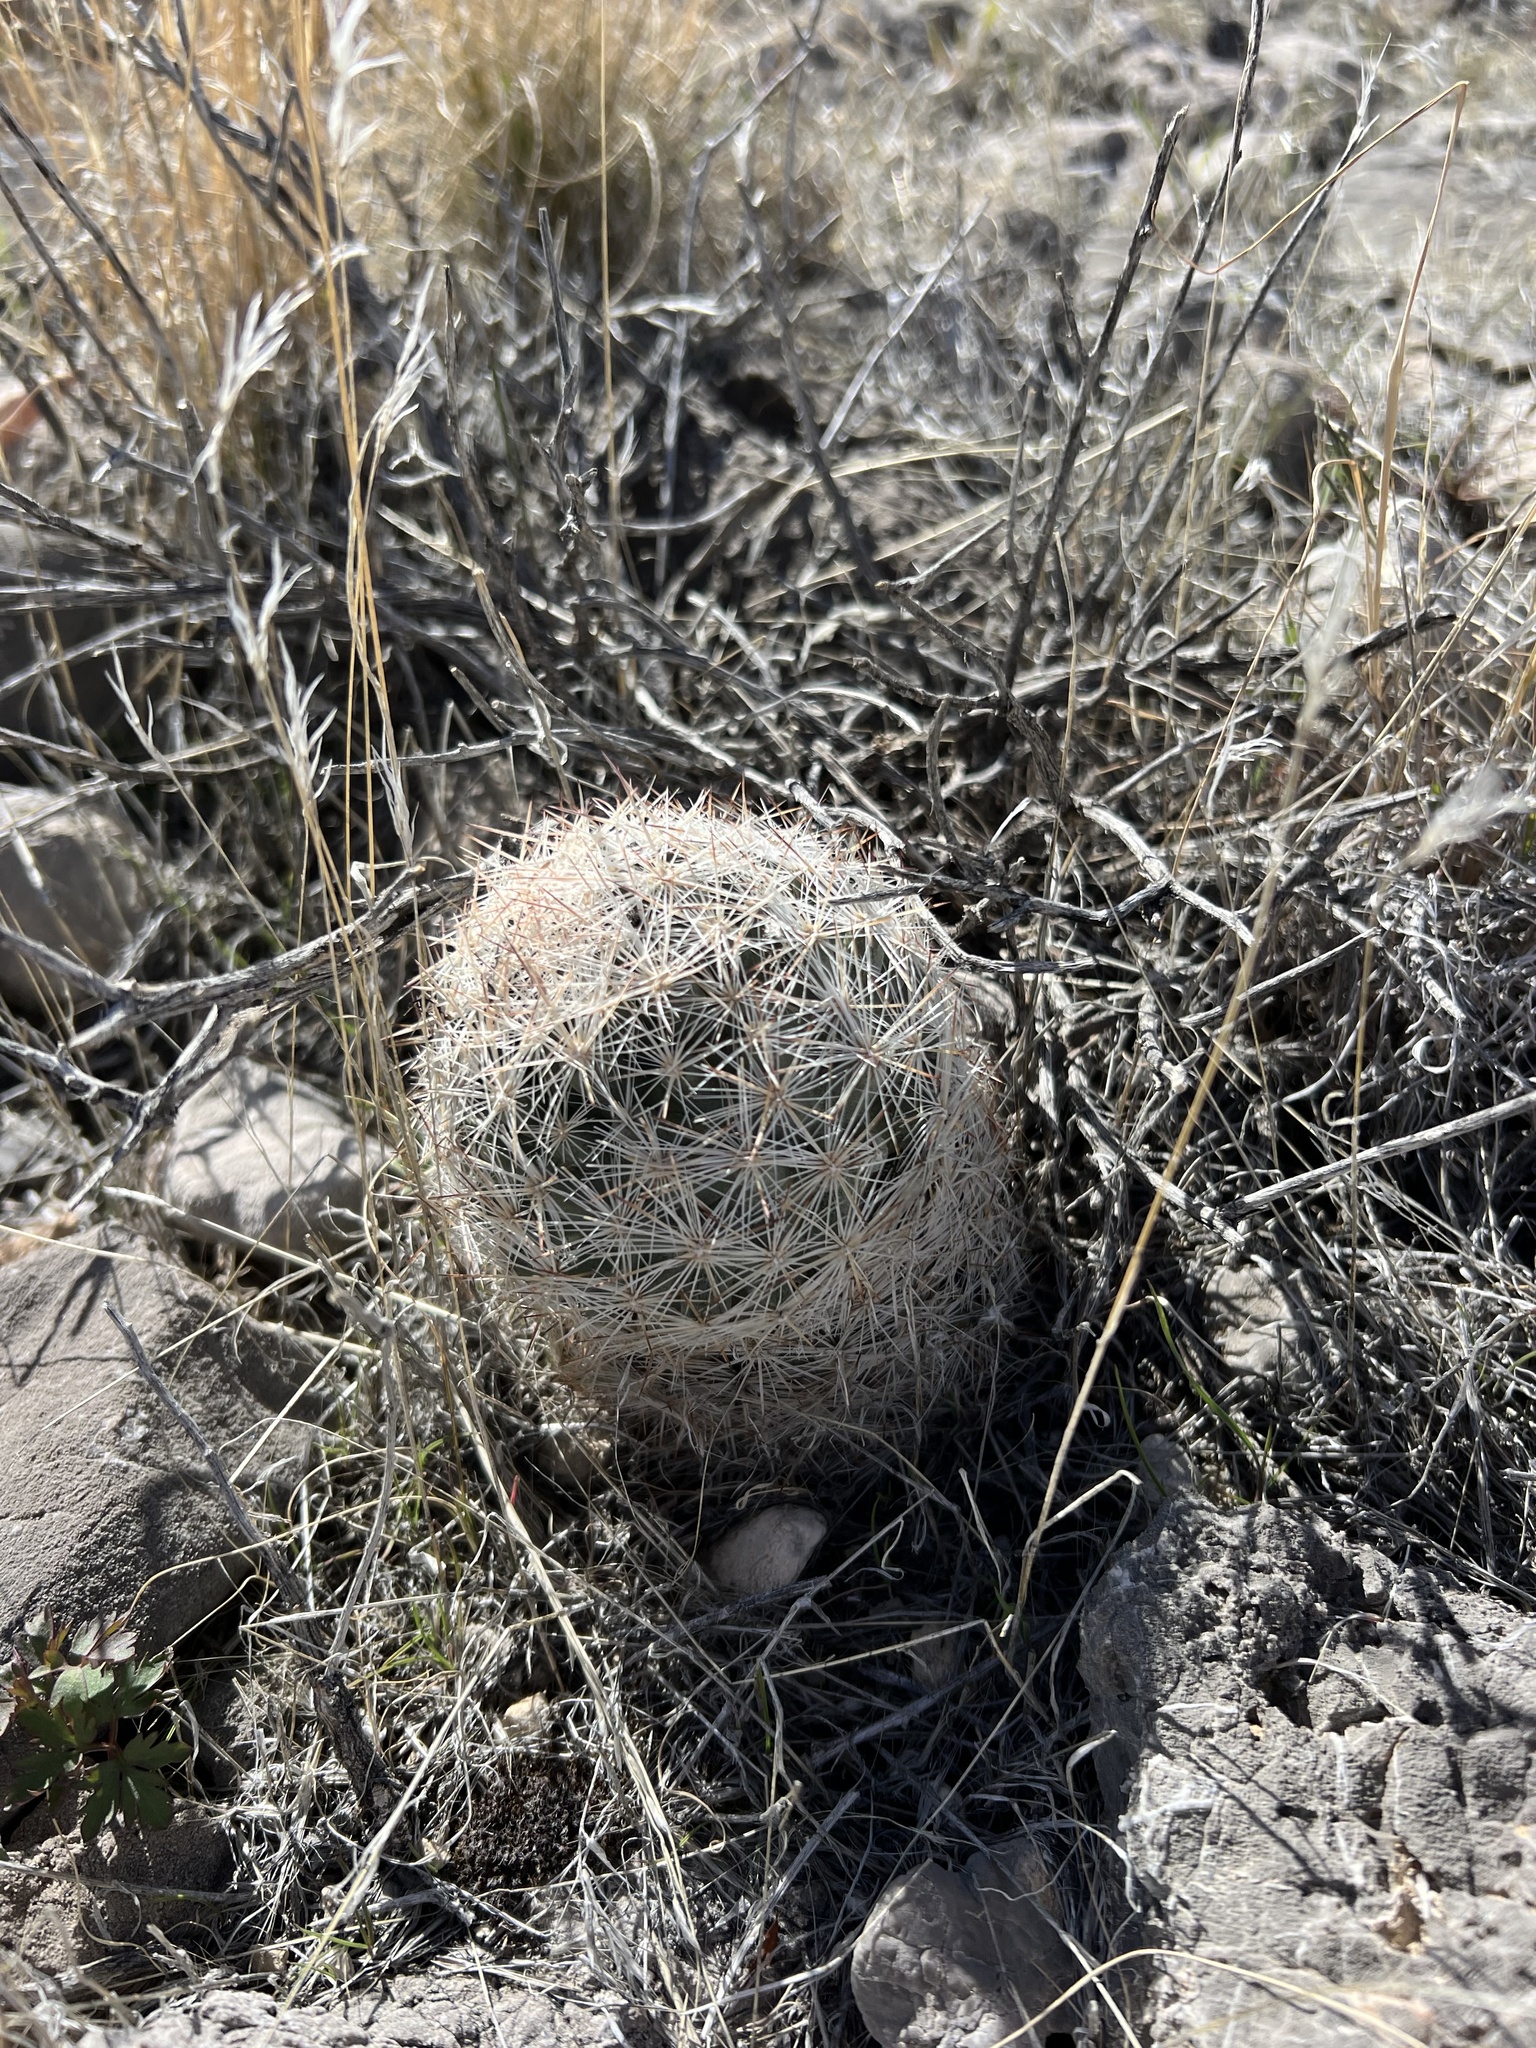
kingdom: Plantae
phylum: Tracheophyta
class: Magnoliopsida
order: Caryophyllales
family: Cactaceae
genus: Pelecyphora
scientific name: Pelecyphora dasyacantha
